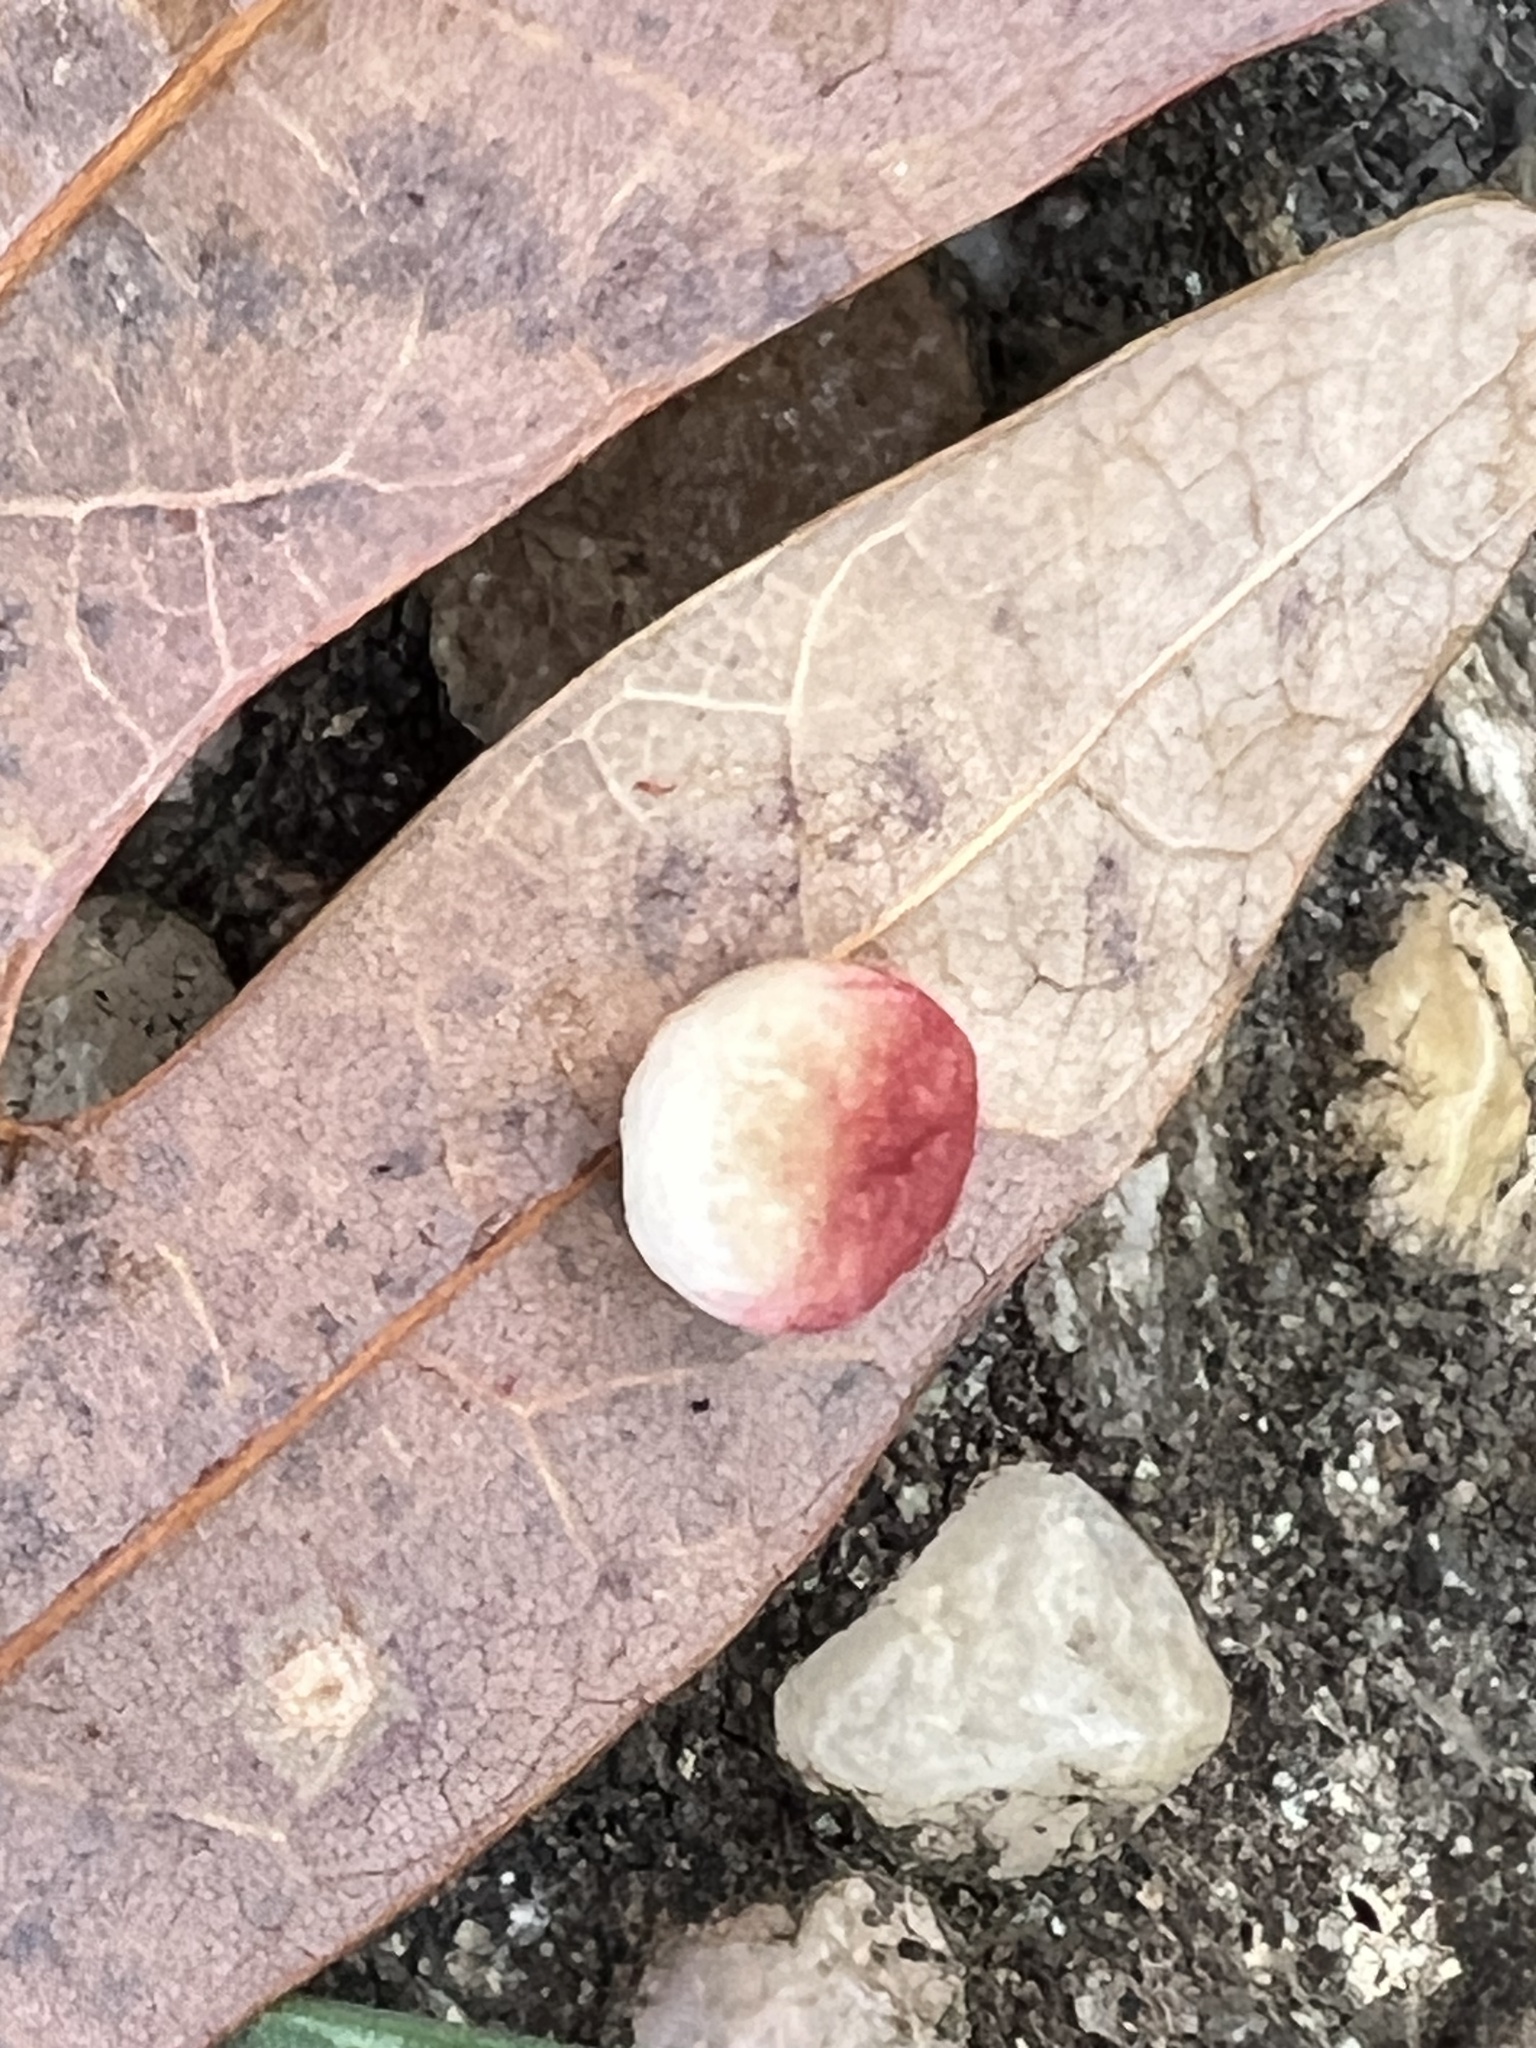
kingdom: Animalia
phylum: Arthropoda
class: Insecta
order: Hymenoptera
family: Cynipidae
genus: Phylloteras
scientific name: Phylloteras
